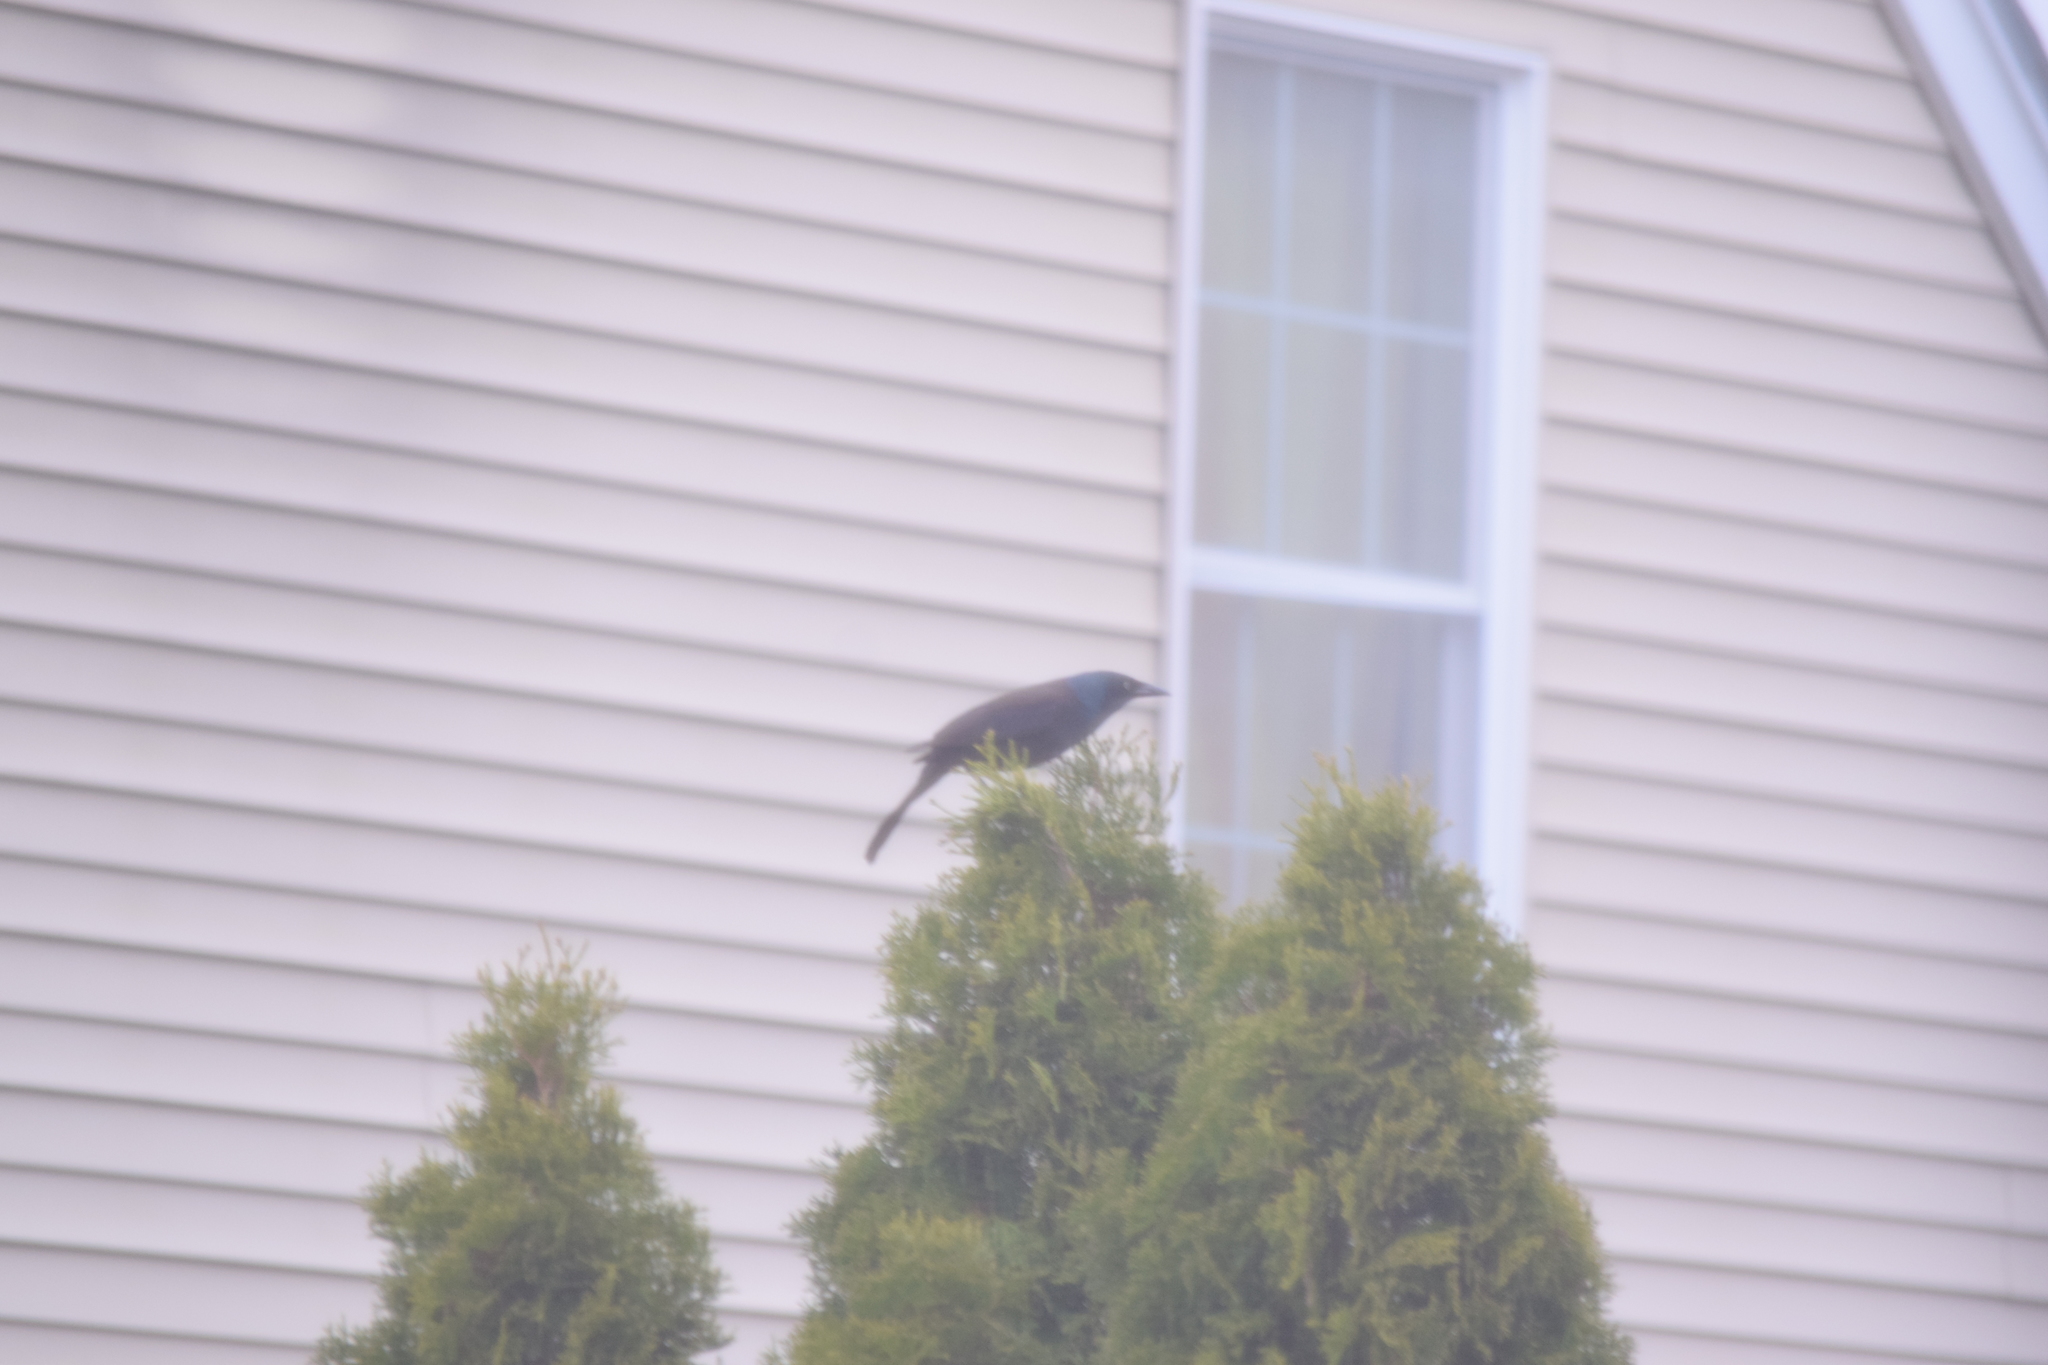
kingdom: Animalia
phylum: Chordata
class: Aves
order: Passeriformes
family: Icteridae
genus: Quiscalus
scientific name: Quiscalus quiscula
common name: Common grackle
